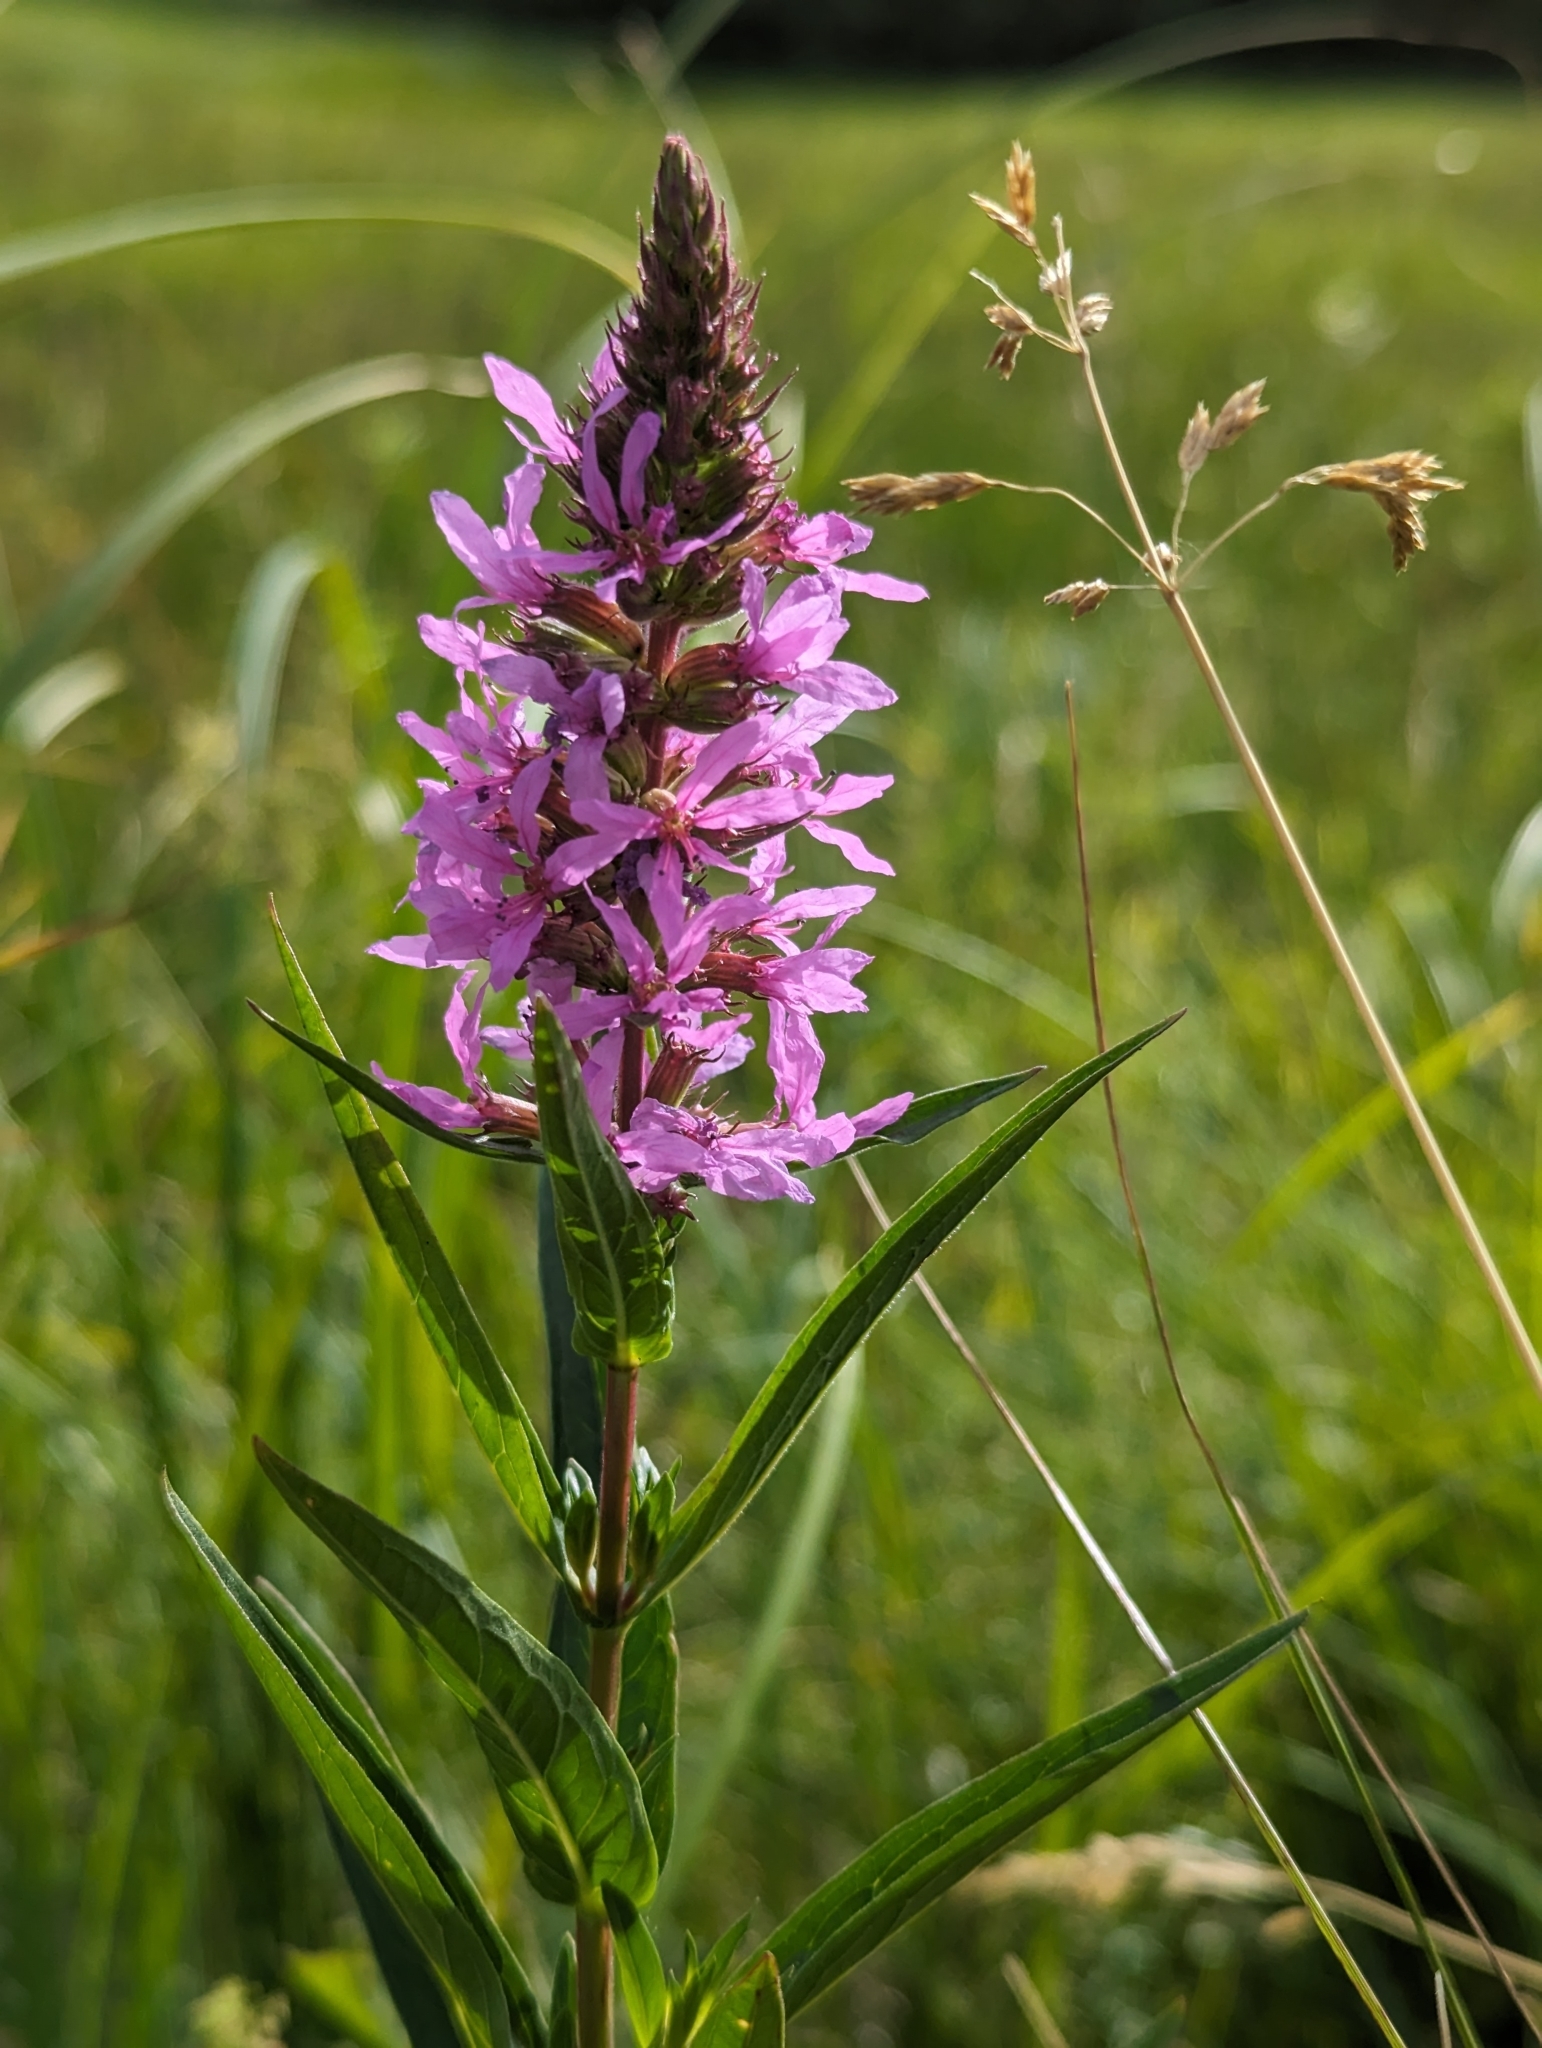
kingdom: Plantae
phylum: Tracheophyta
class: Magnoliopsida
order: Myrtales
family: Lythraceae
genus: Lythrum
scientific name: Lythrum salicaria
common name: Purple loosestrife
